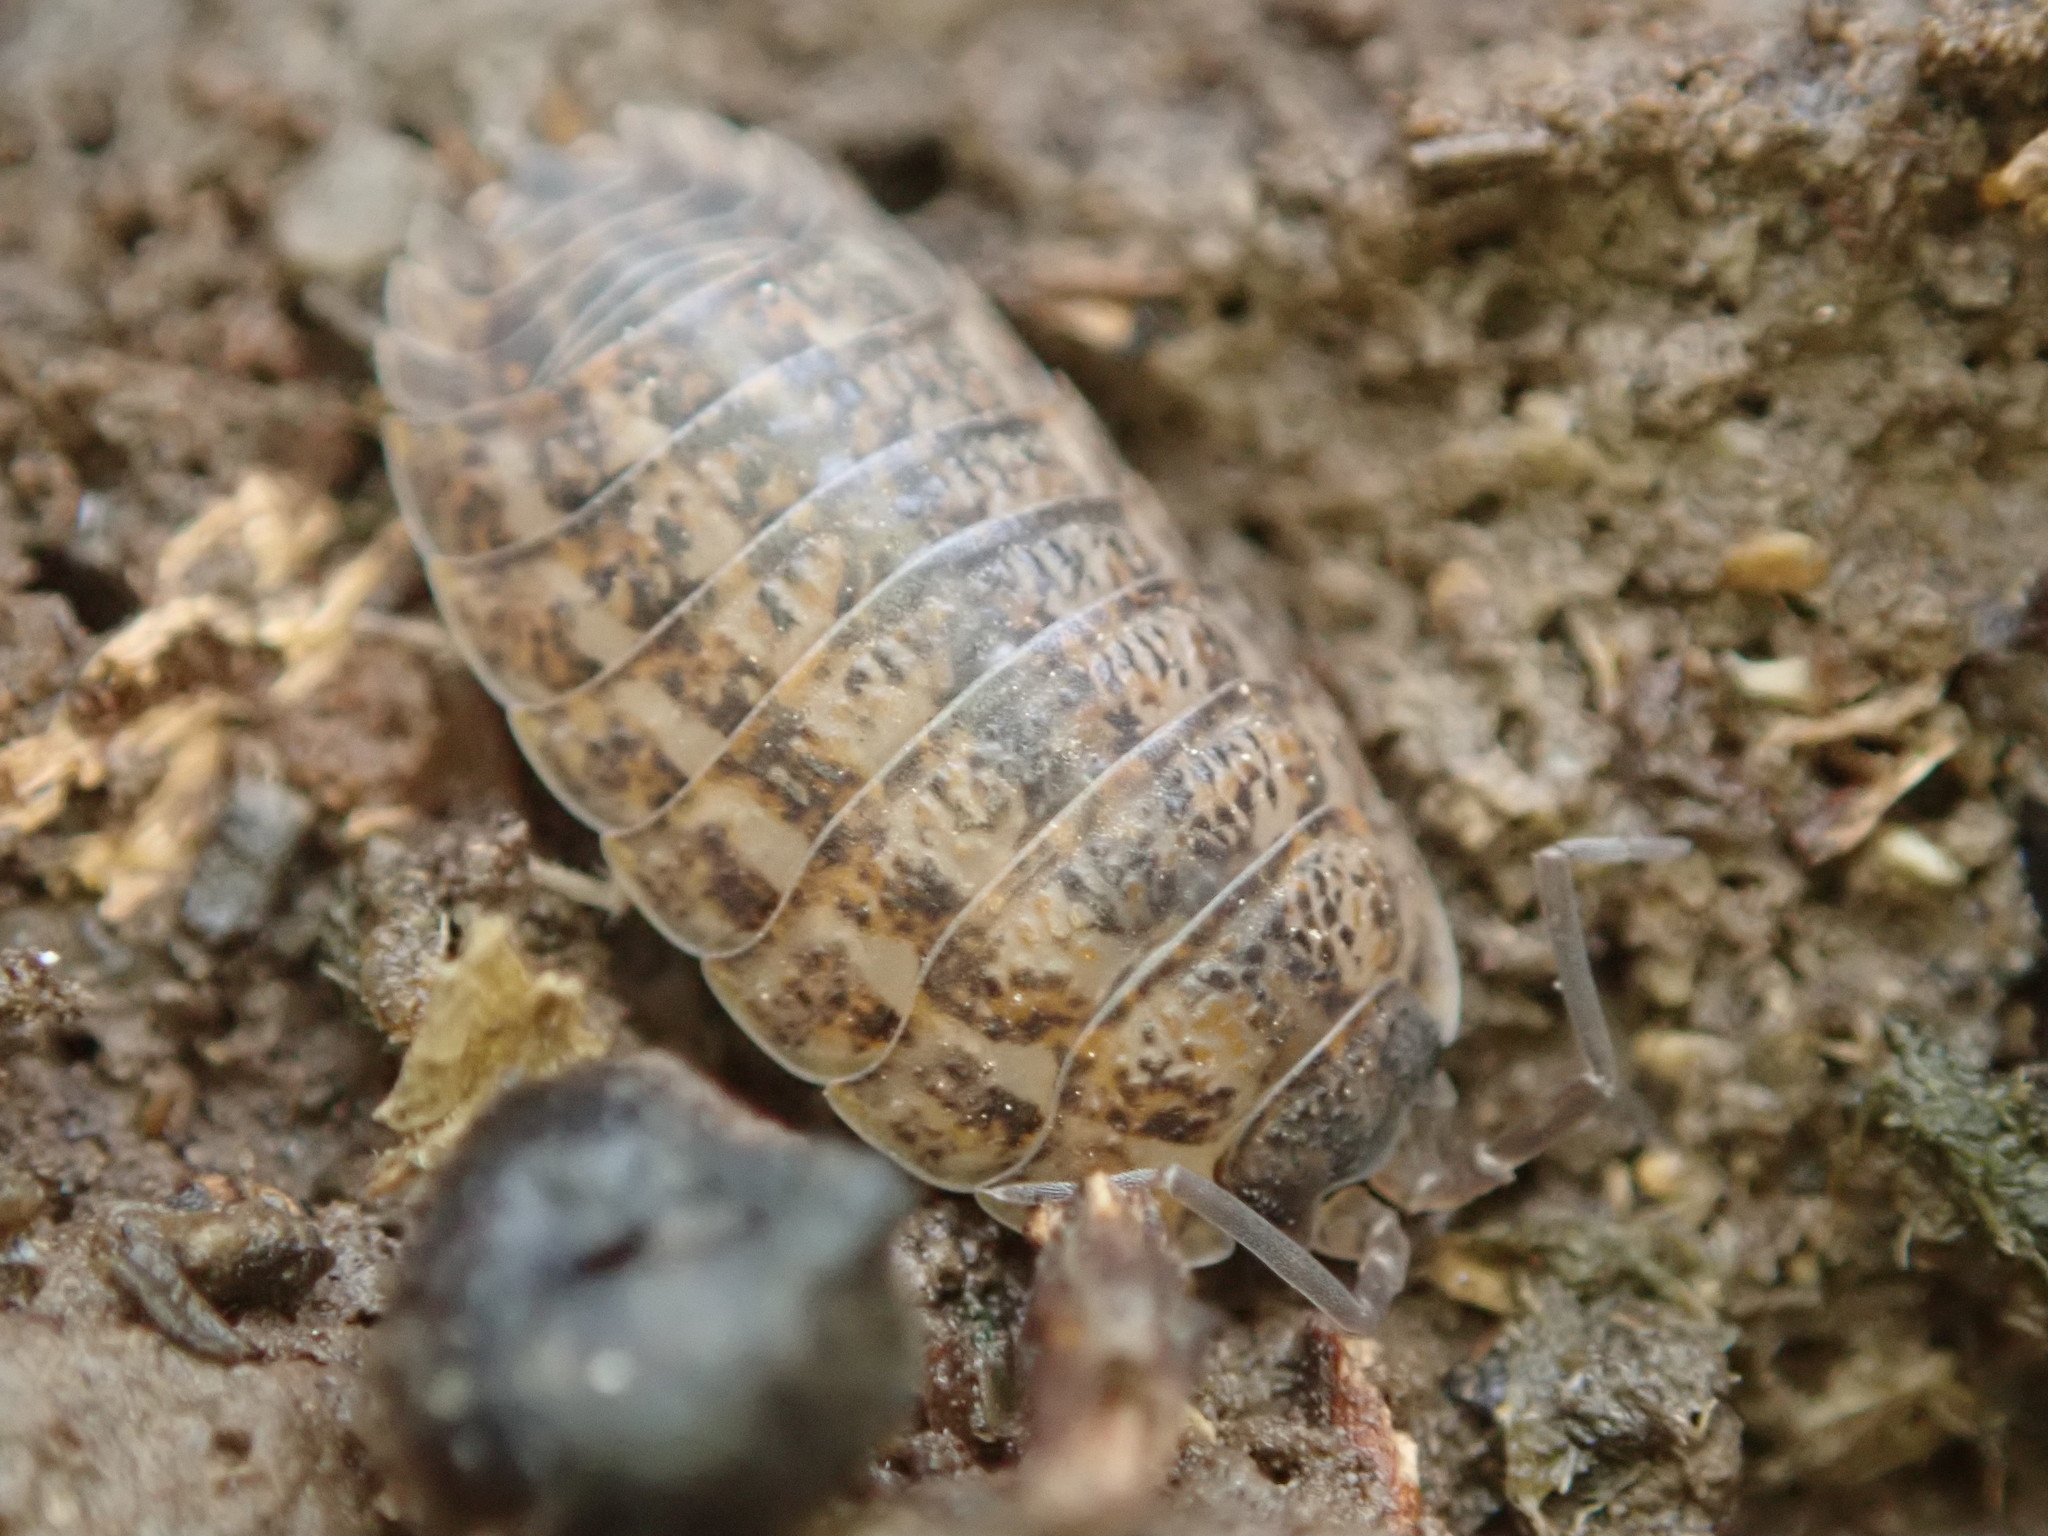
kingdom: Animalia
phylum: Arthropoda
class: Malacostraca
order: Isopoda
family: Trachelipodidae
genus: Trachelipus
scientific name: Trachelipus rathkii
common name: Isopod
